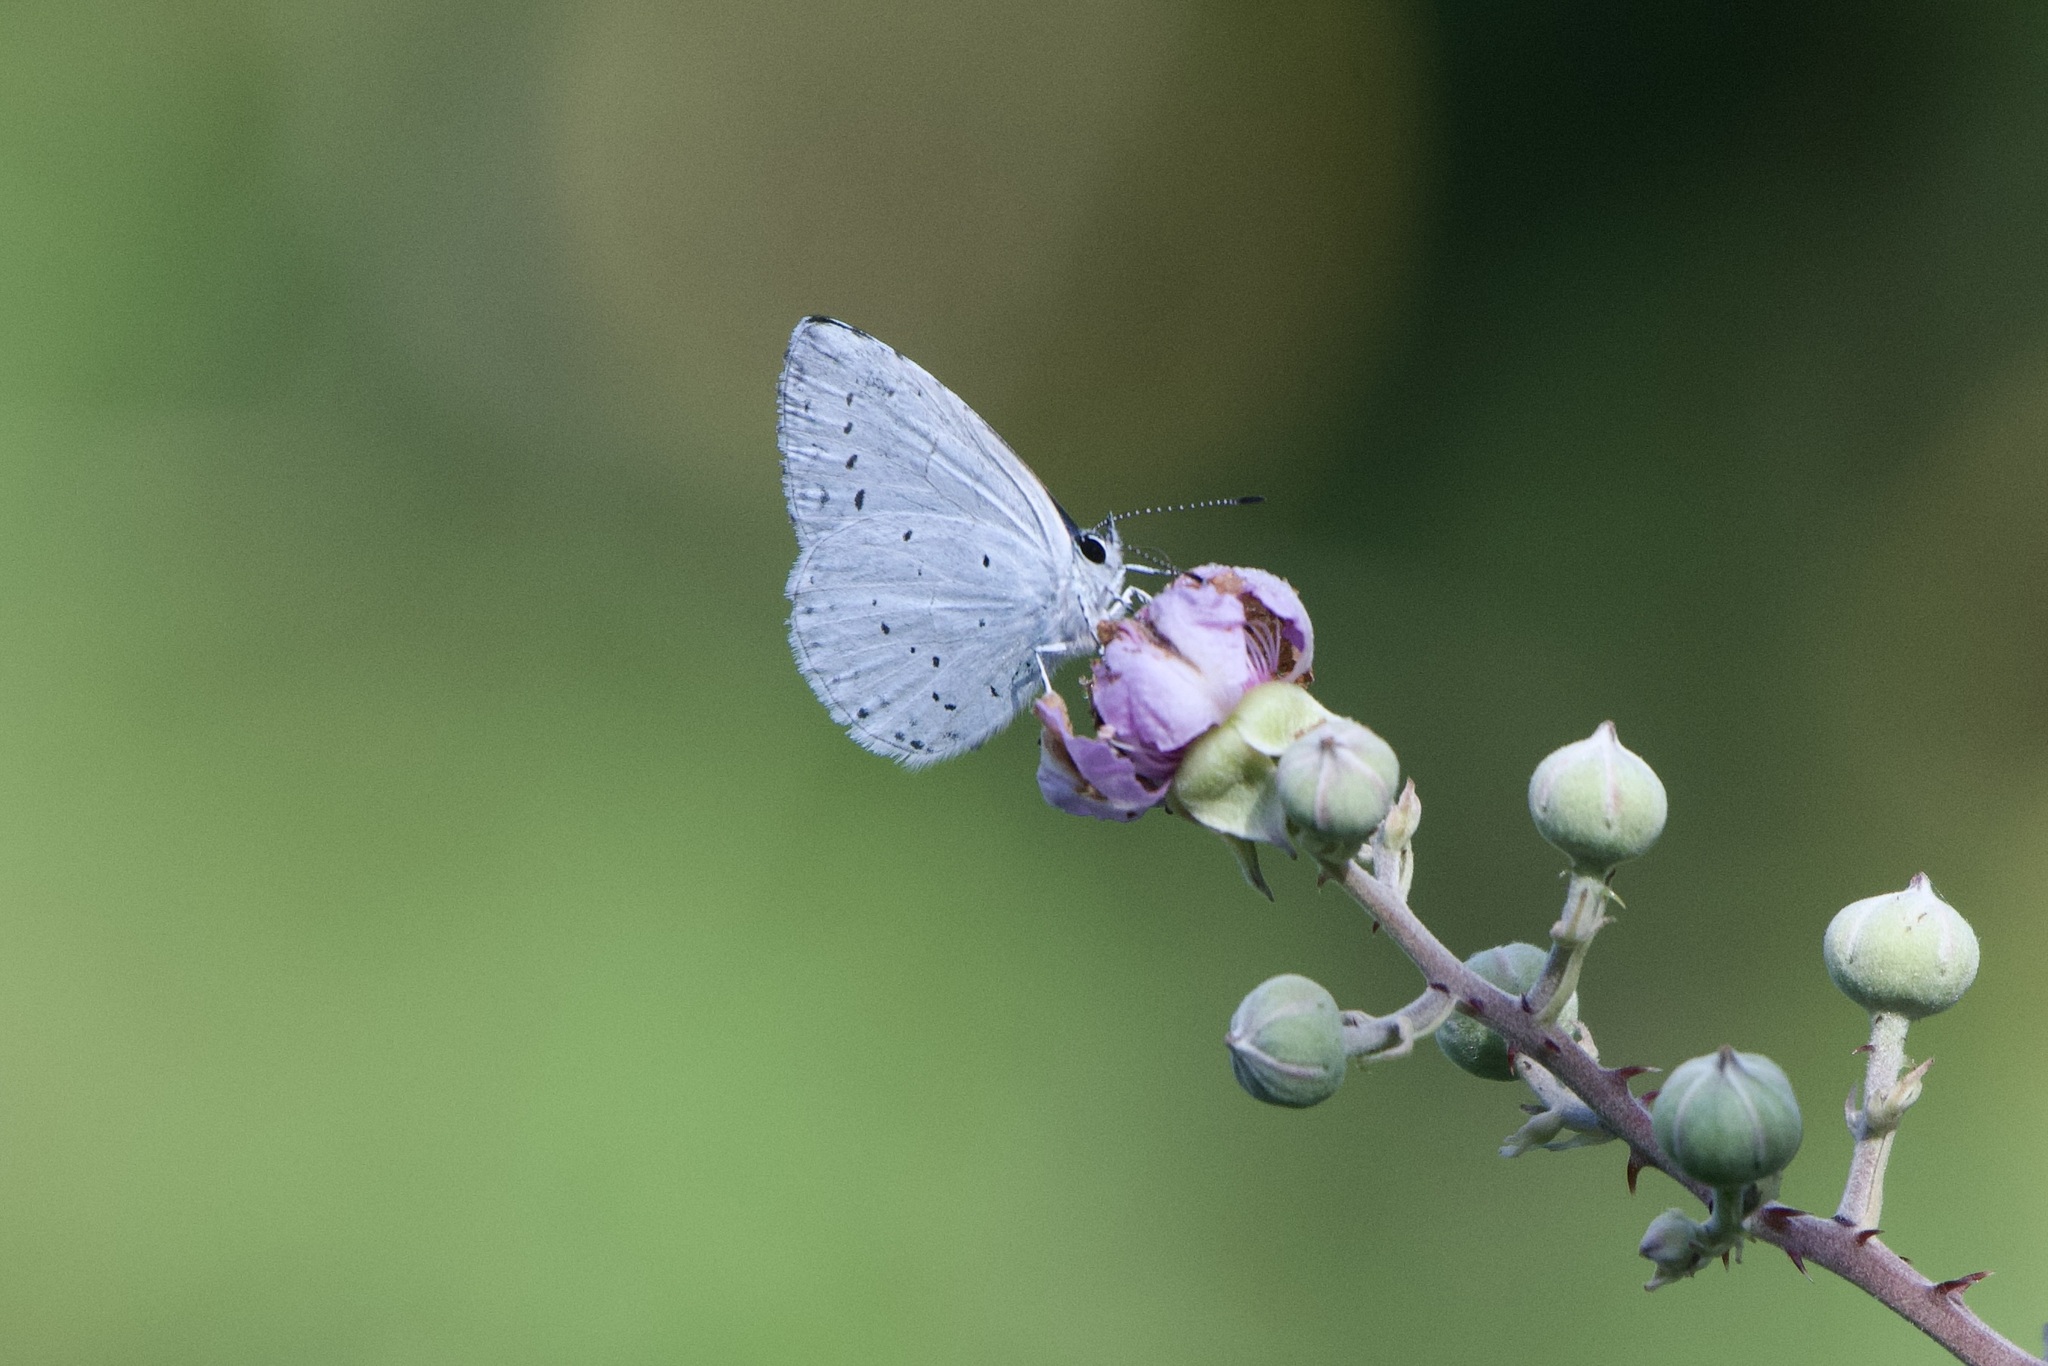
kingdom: Animalia
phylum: Arthropoda
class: Insecta
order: Lepidoptera
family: Lycaenidae
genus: Celastrina
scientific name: Celastrina argiolus
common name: Holly blue
